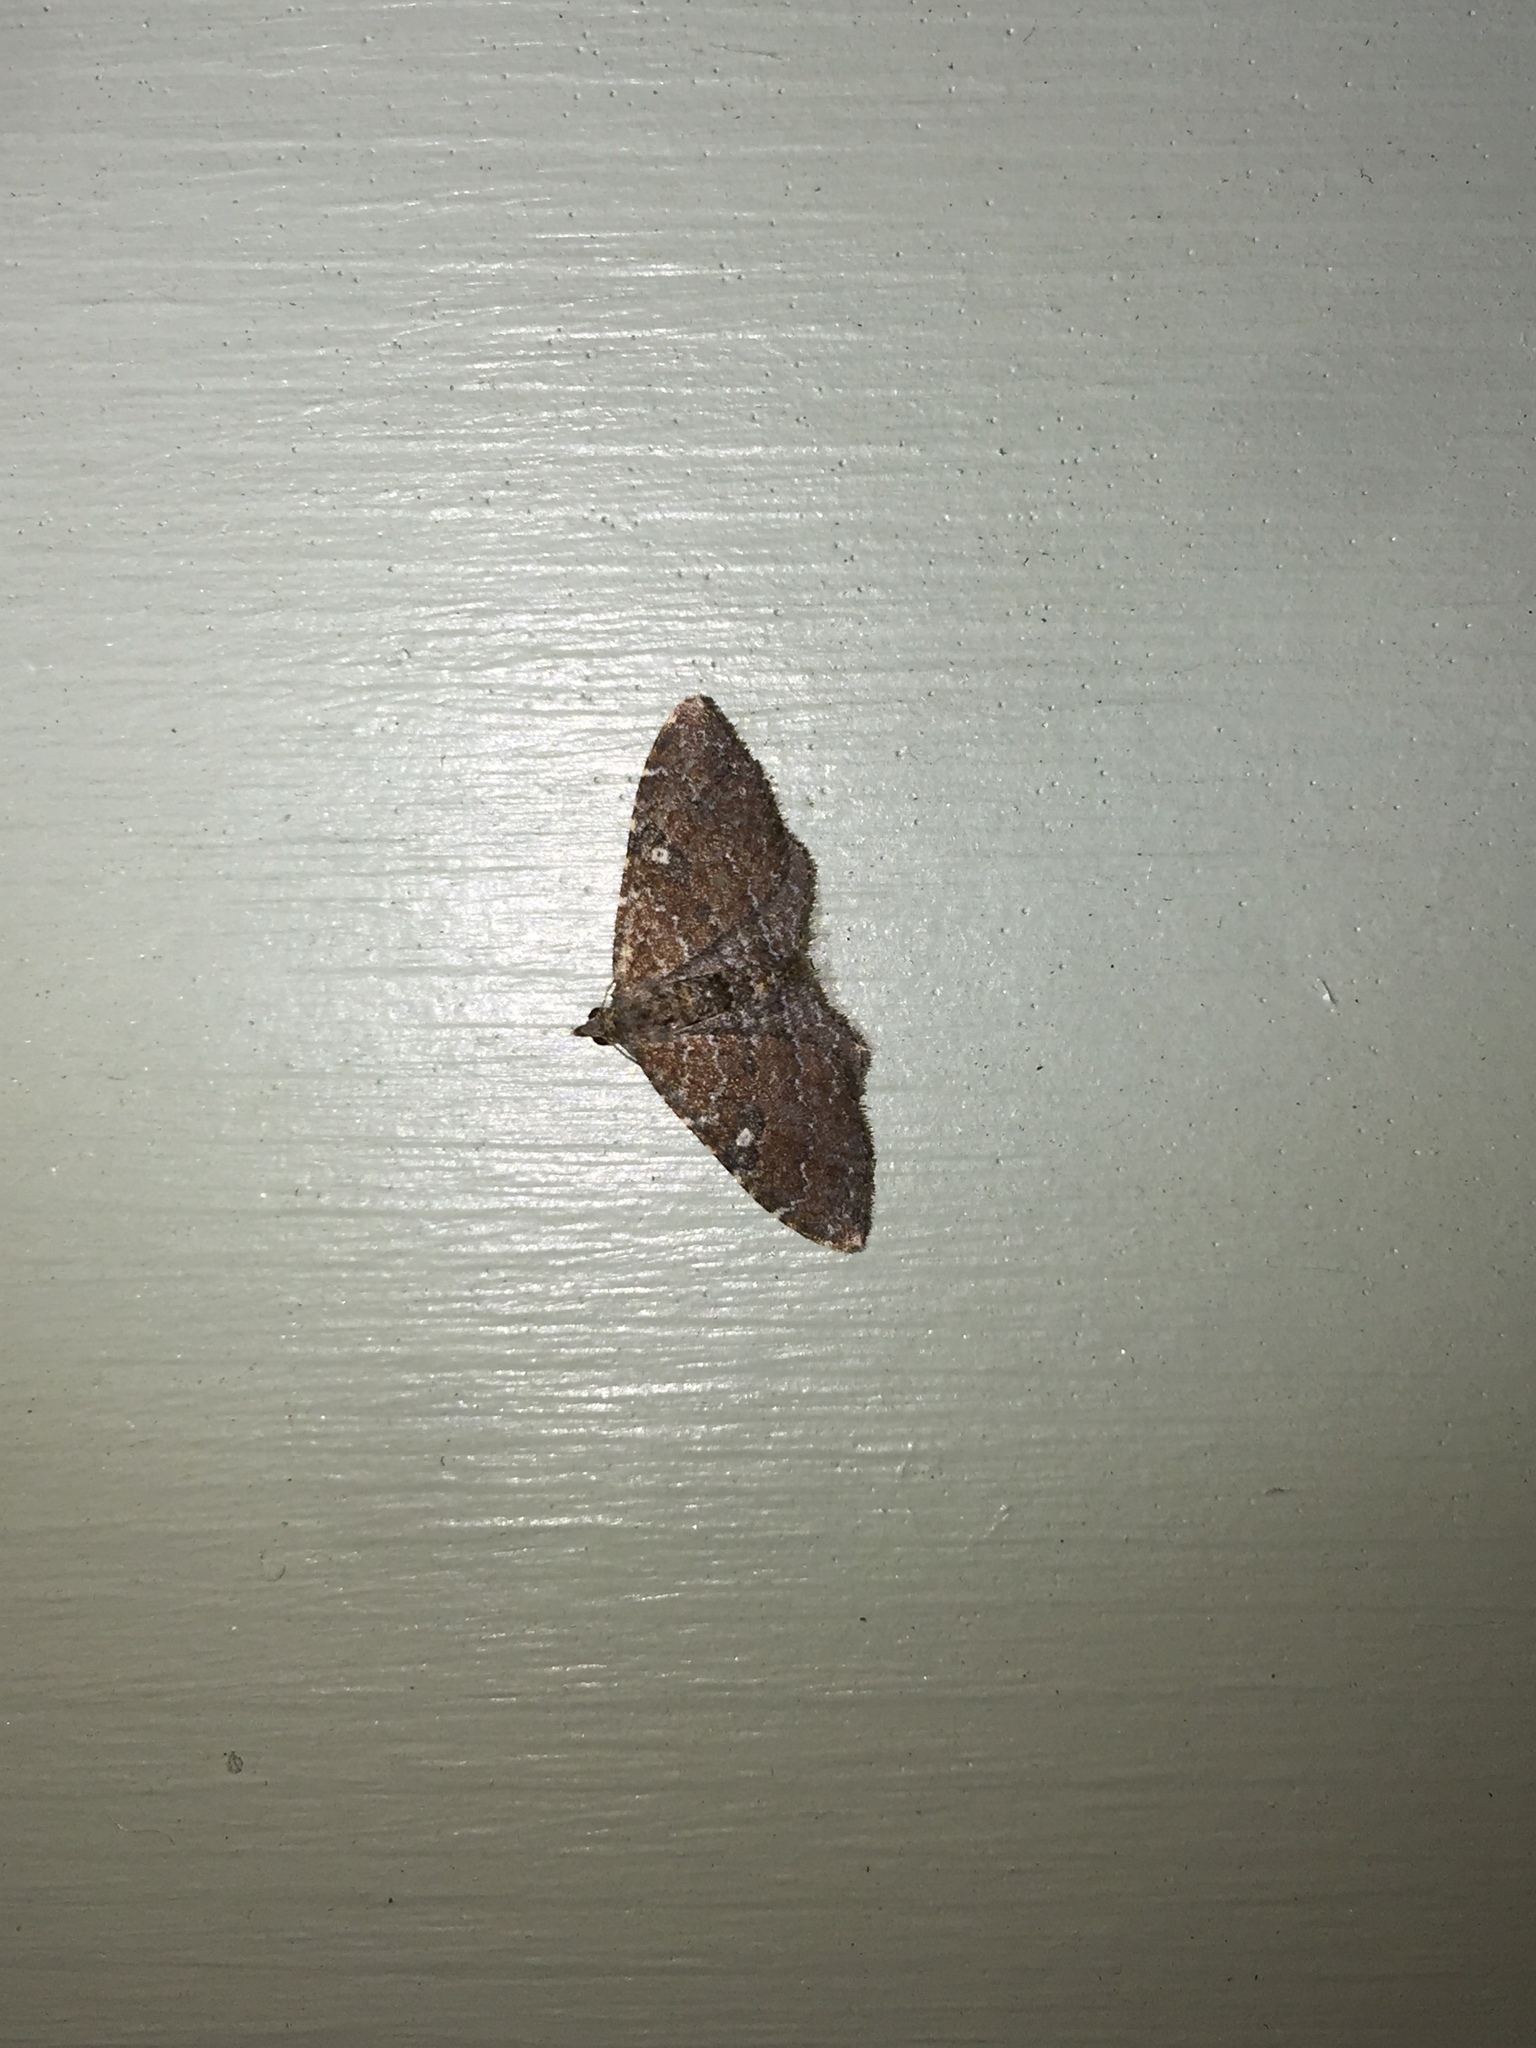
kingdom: Animalia
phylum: Arthropoda
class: Insecta
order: Lepidoptera
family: Geometridae
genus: Orthonama
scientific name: Orthonama obstipata
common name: The gem
